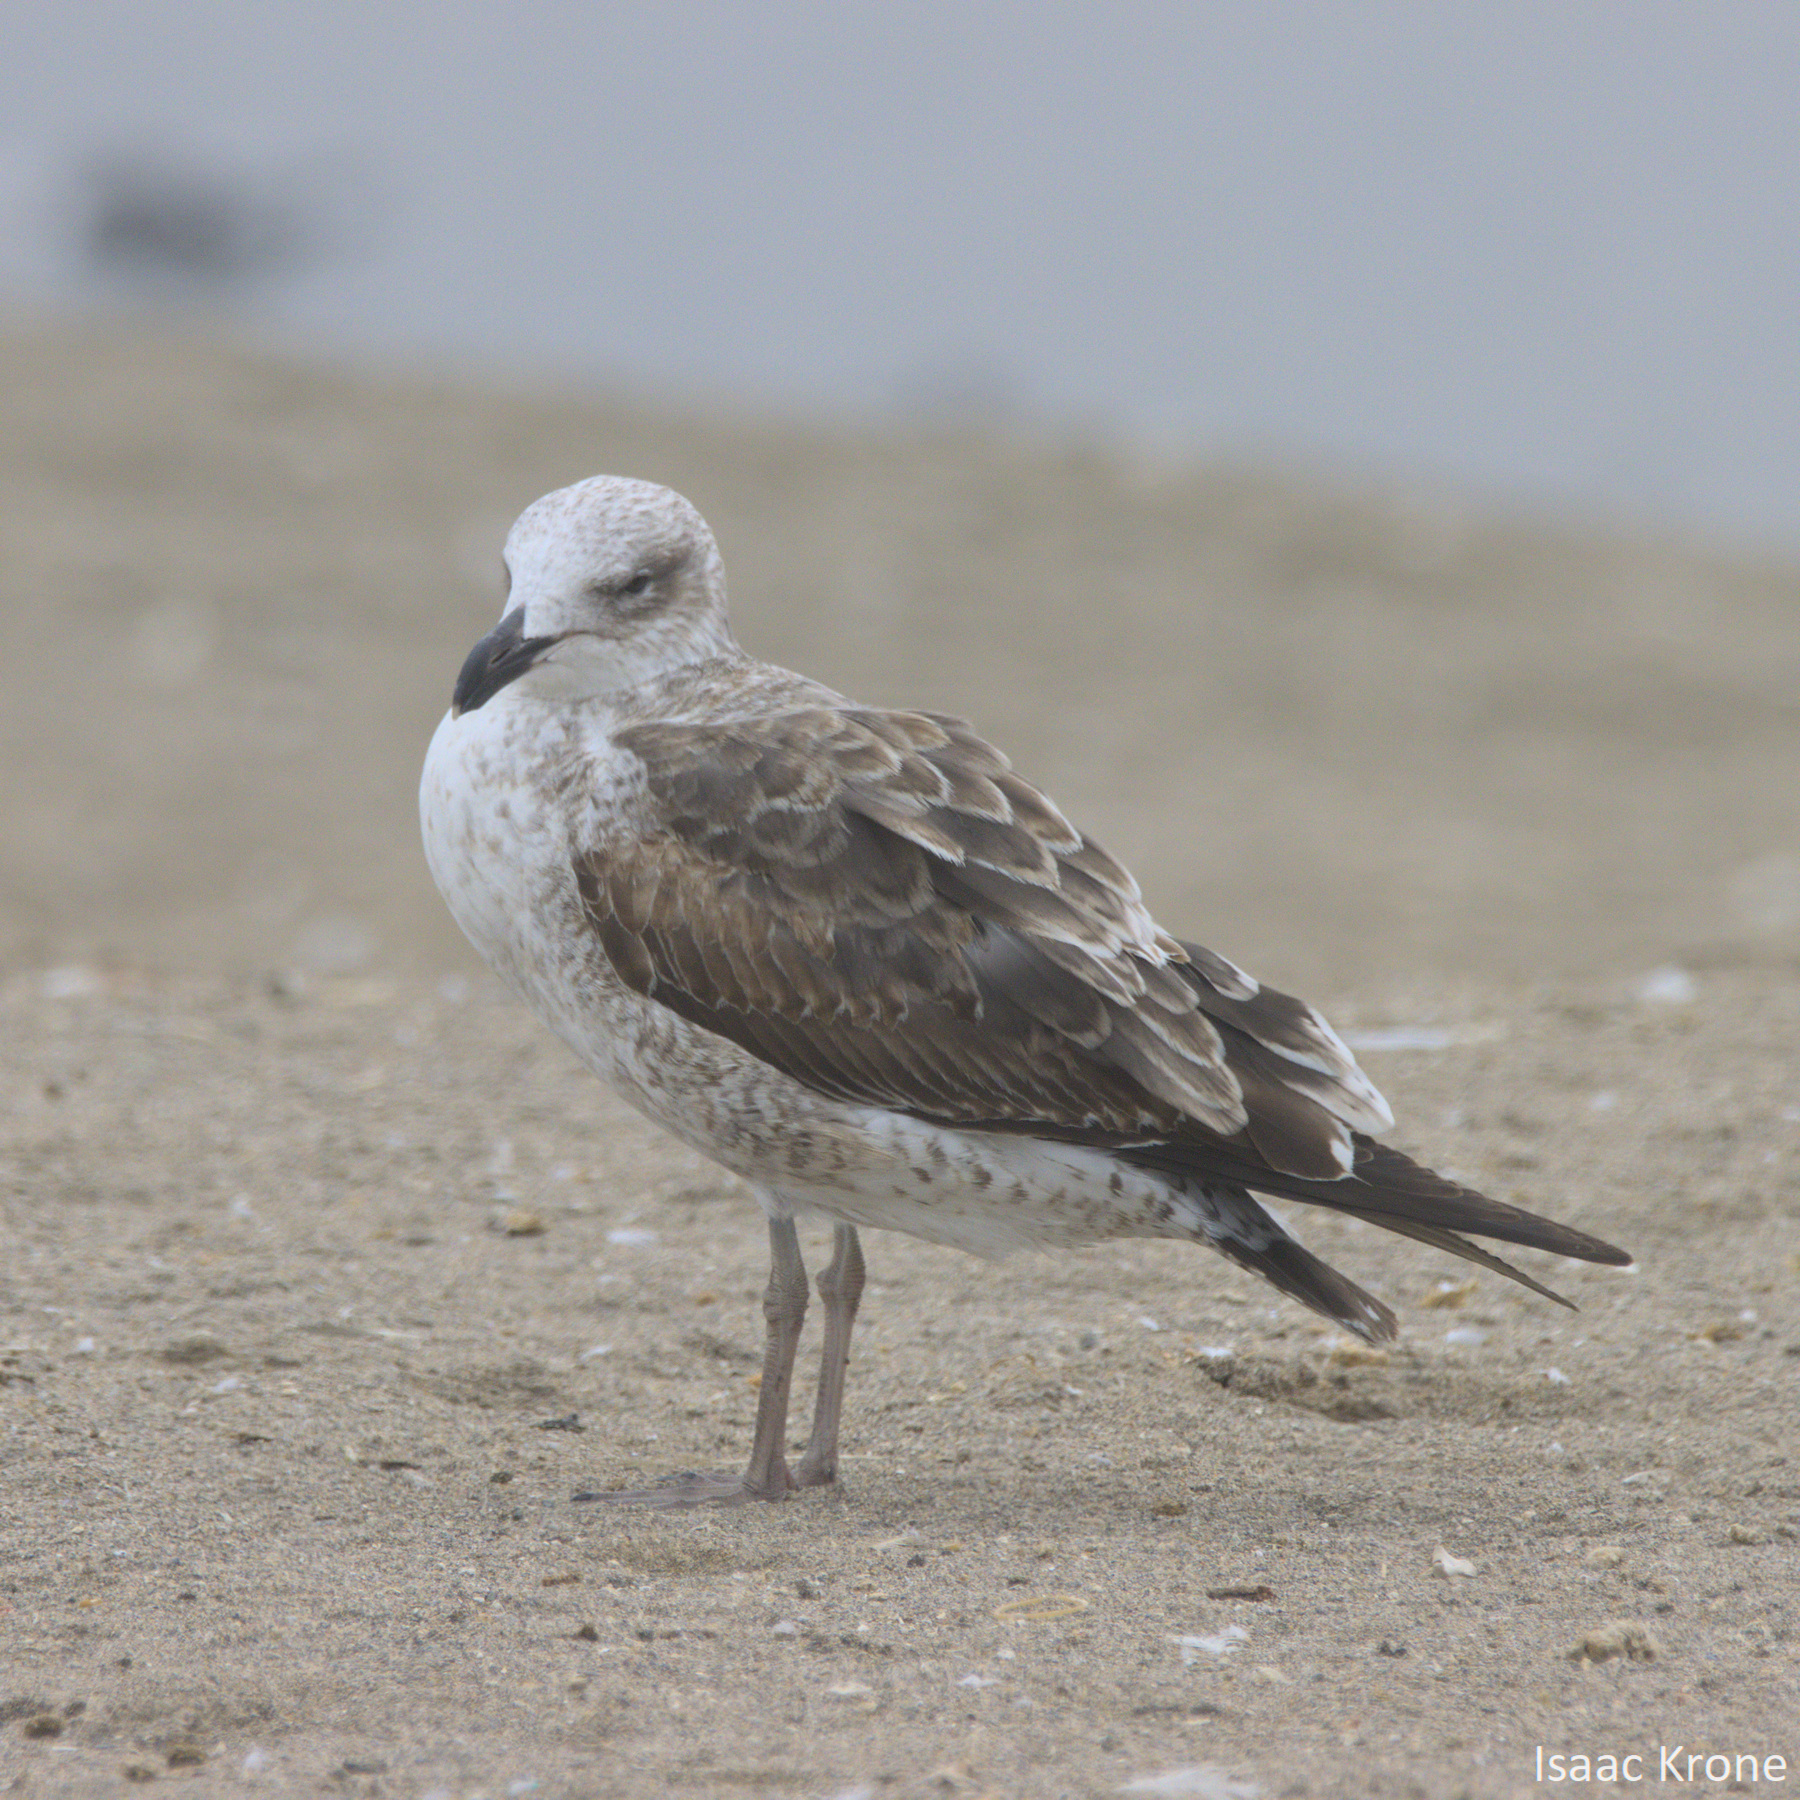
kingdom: Animalia
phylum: Chordata
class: Aves
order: Charadriiformes
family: Laridae
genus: Larus
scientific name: Larus dominicanus
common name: Kelp gull
